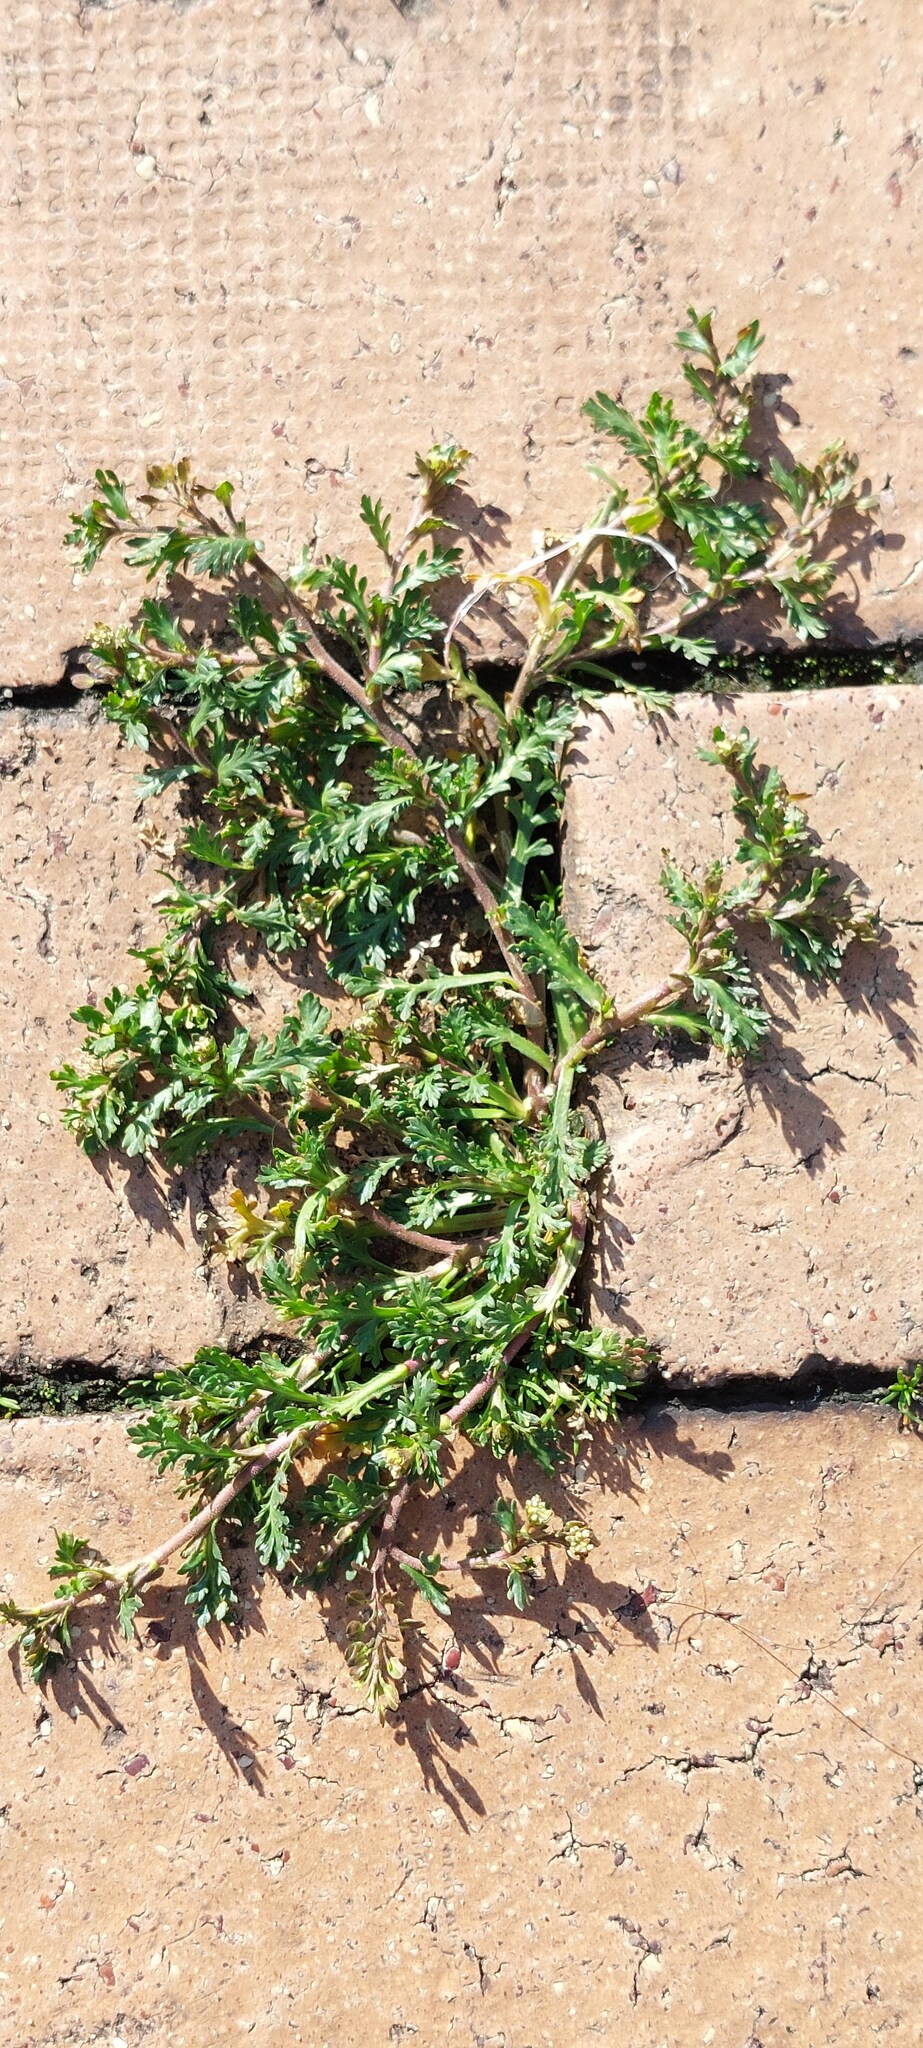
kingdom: Plantae
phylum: Tracheophyta
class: Magnoliopsida
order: Brassicales
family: Brassicaceae
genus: Lepidium
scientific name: Lepidium bipinnatifidum
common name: Wayside pepperwort
